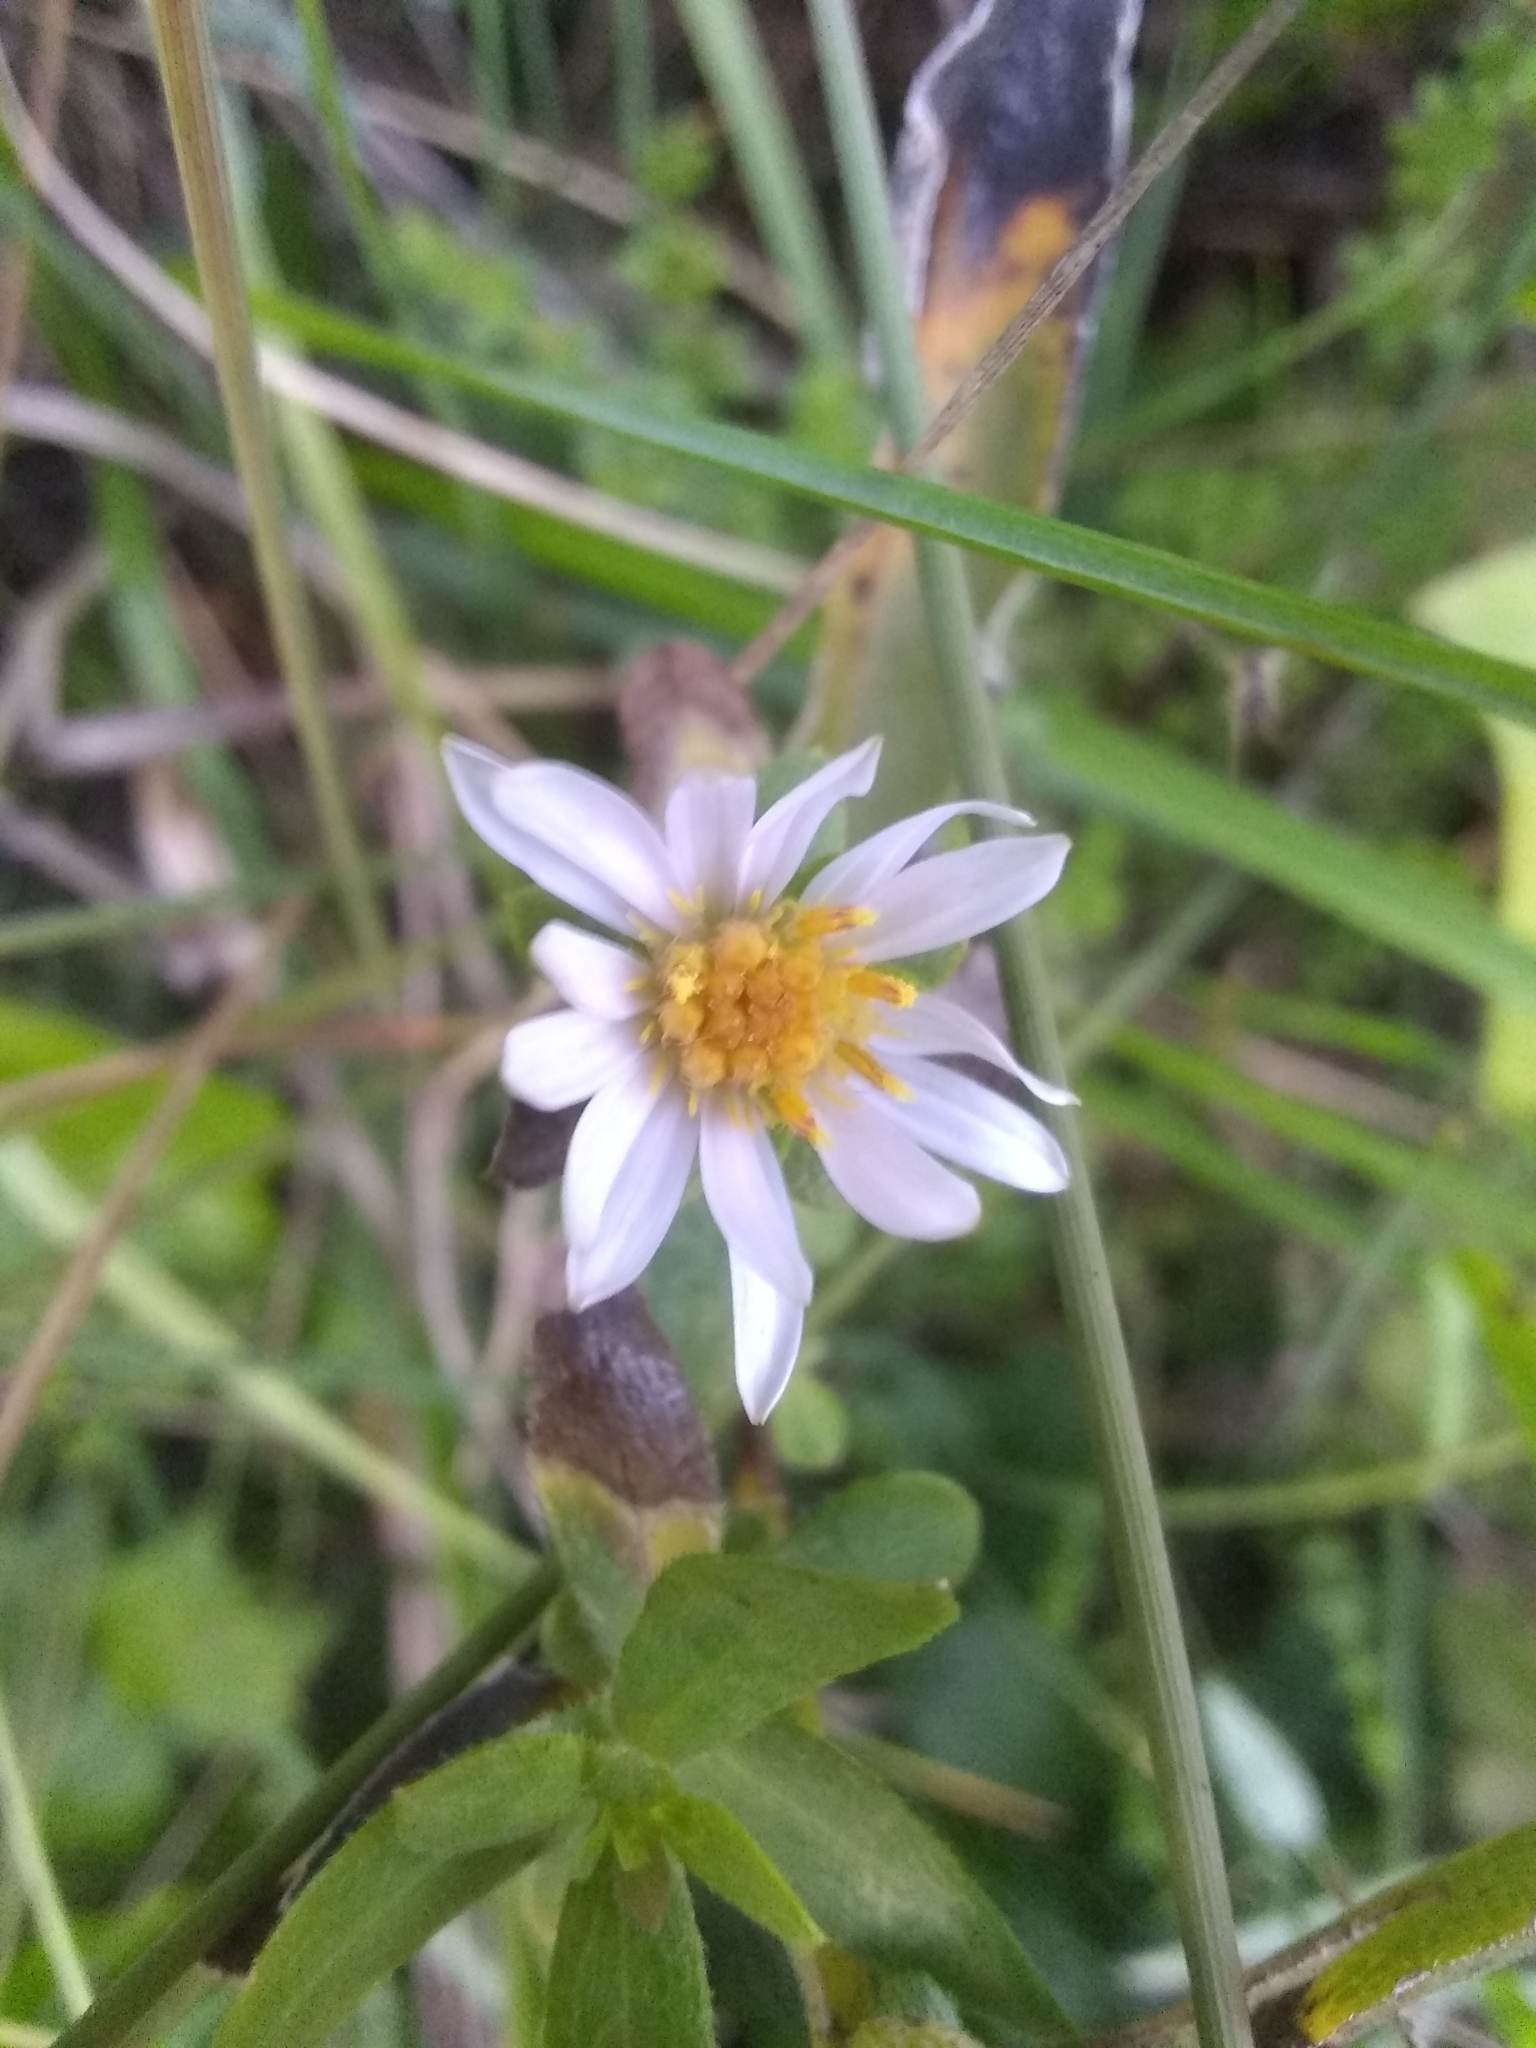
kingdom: Plantae
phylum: Tracheophyta
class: Magnoliopsida
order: Asterales
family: Asteraceae
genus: Symphyotrichum
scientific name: Symphyotrichum chilense
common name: Pacific aster
